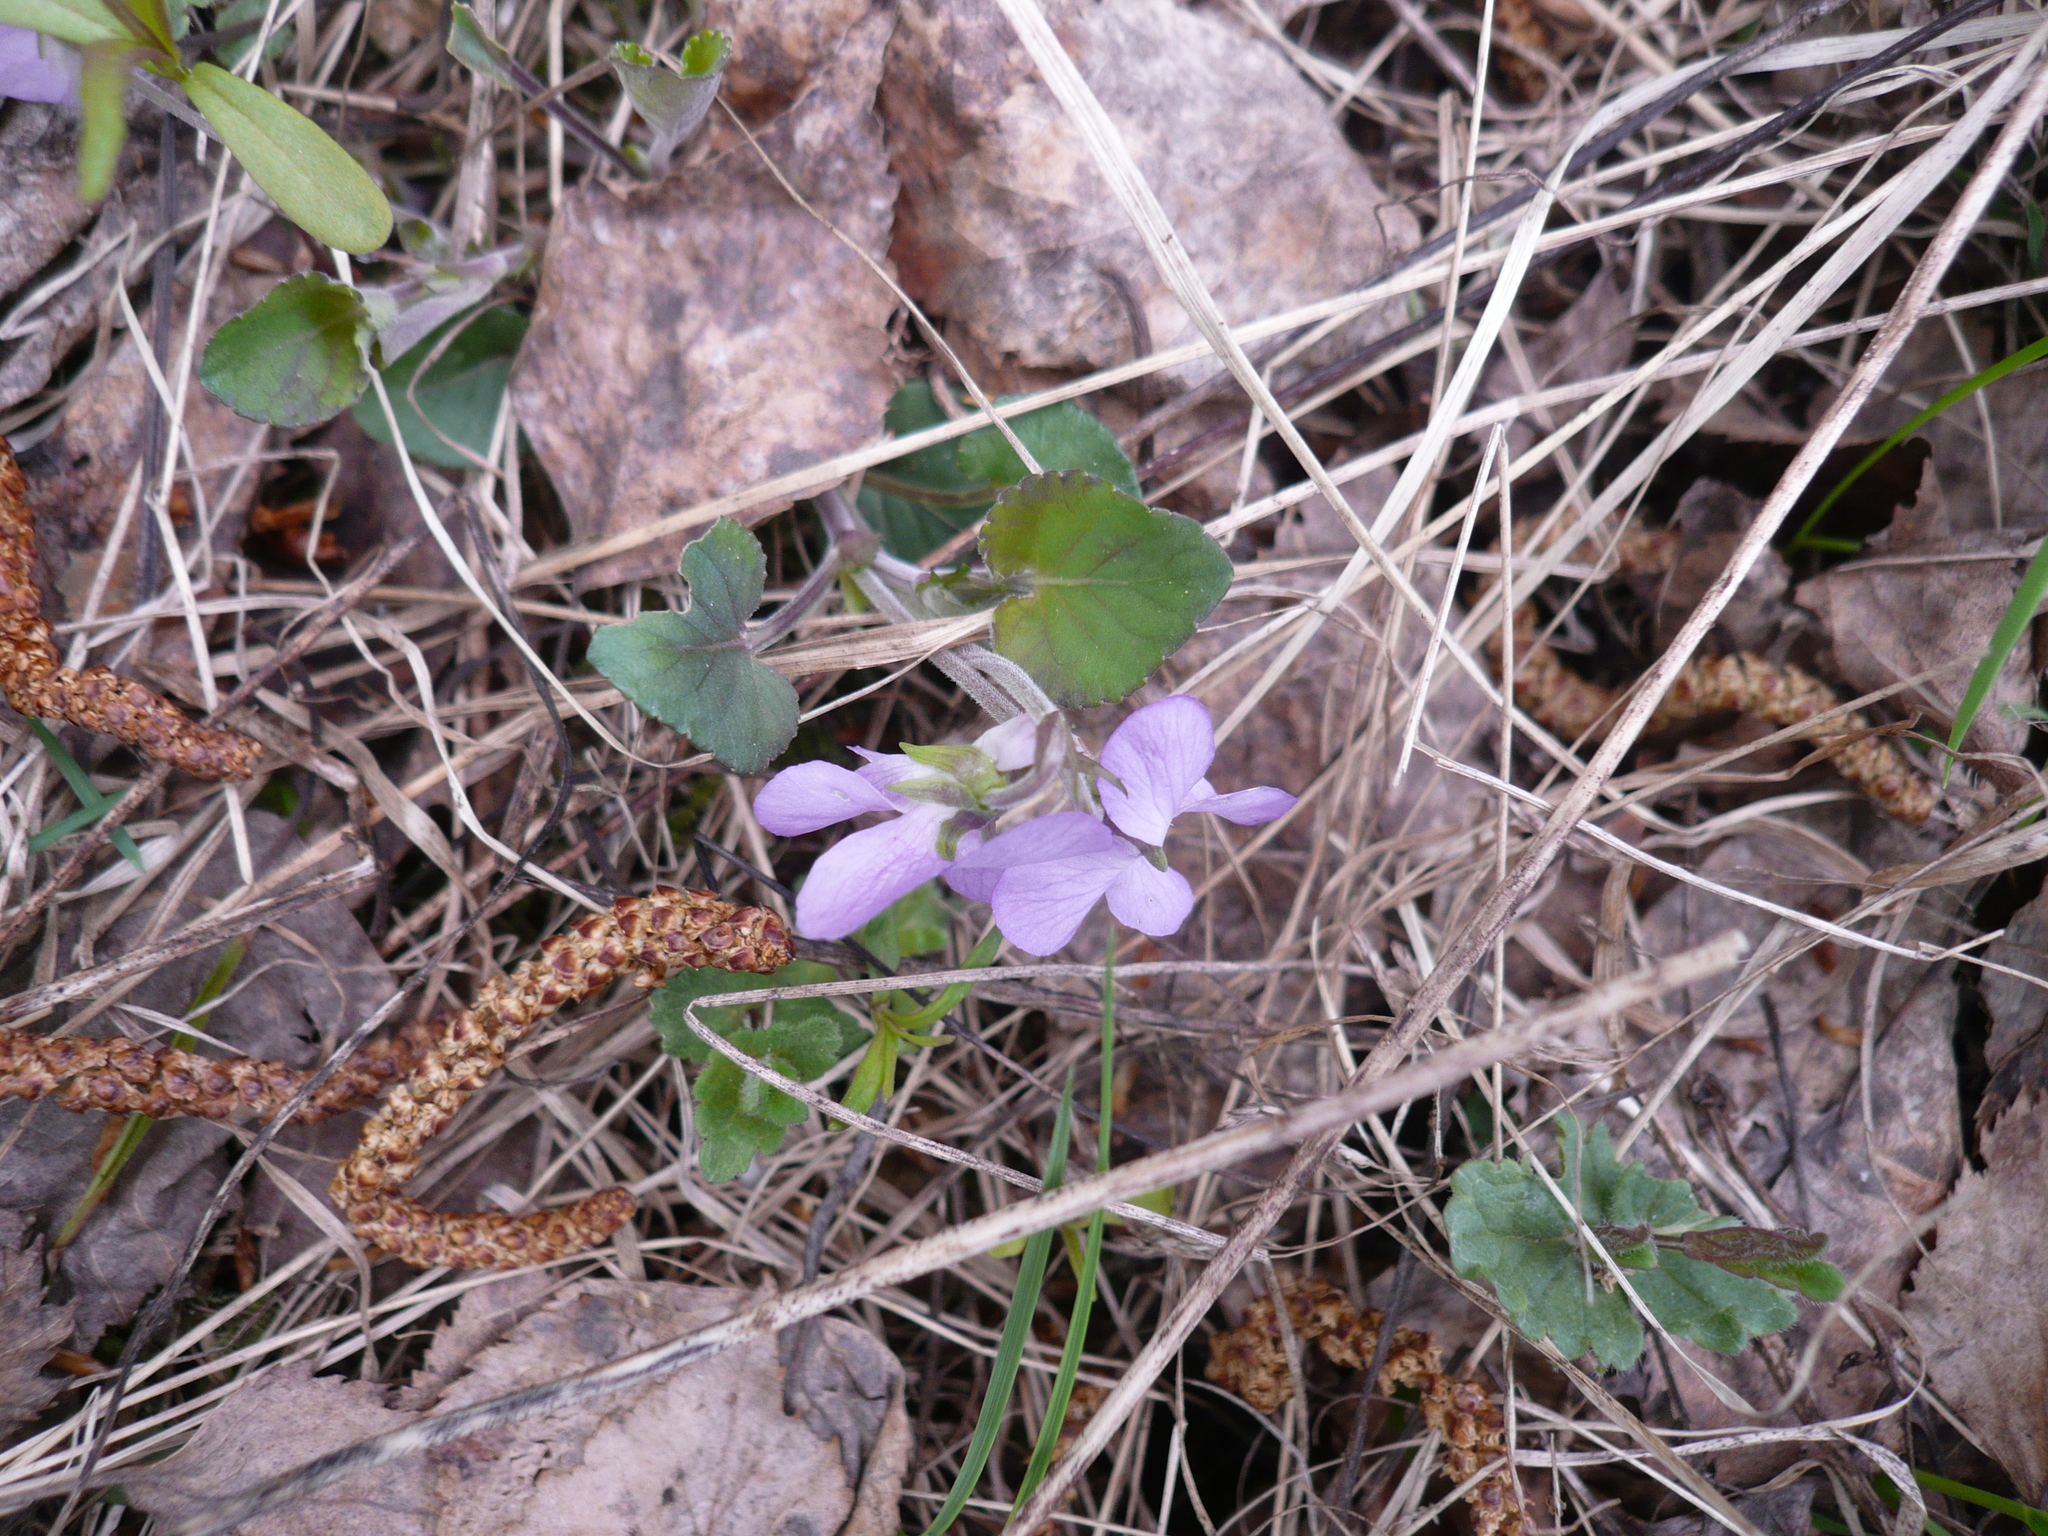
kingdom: Plantae
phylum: Tracheophyta
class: Magnoliopsida
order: Malpighiales
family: Violaceae
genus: Viola
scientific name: Viola rupestris
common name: Teesdale violet
